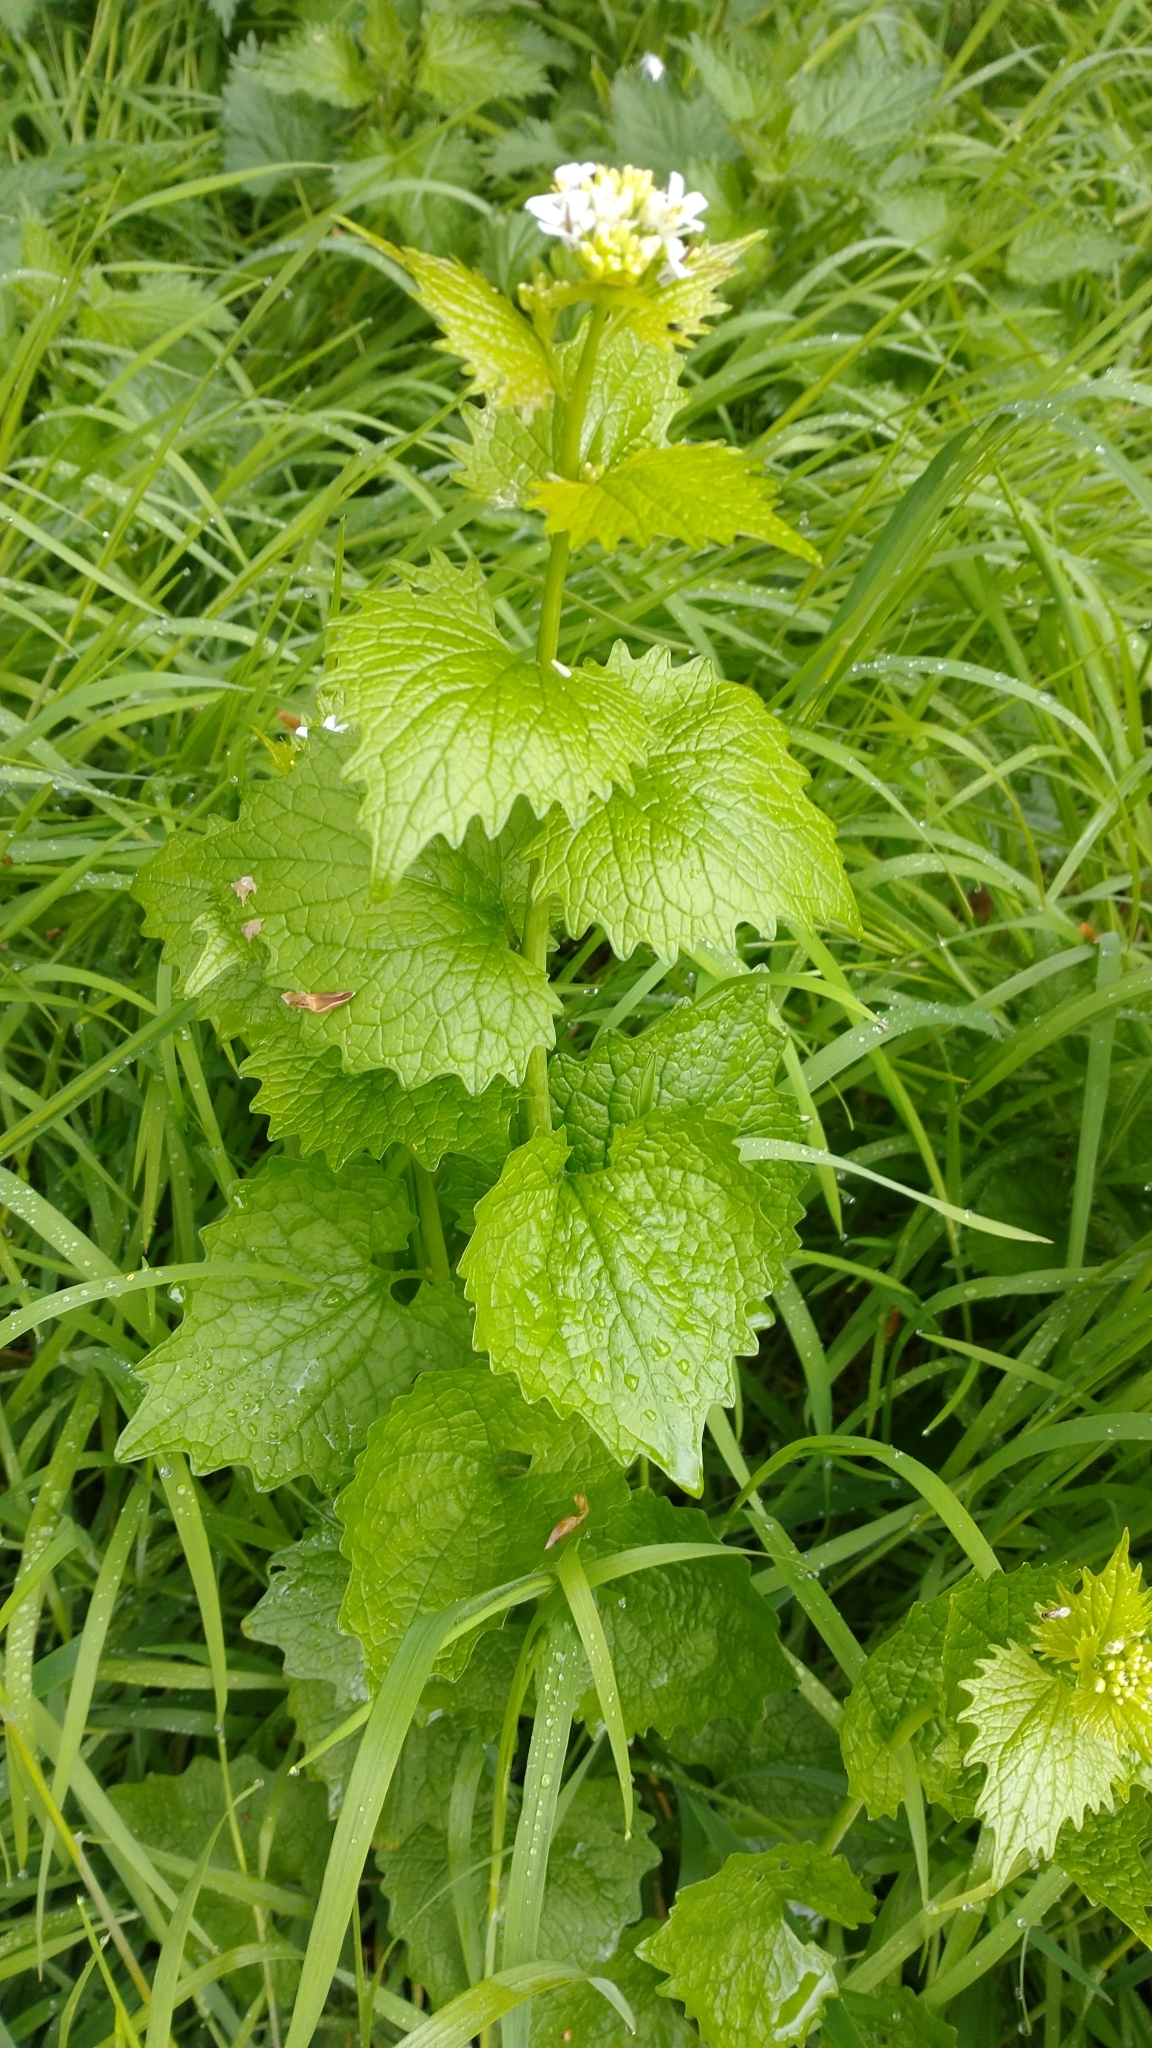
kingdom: Plantae
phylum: Tracheophyta
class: Magnoliopsida
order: Brassicales
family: Brassicaceae
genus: Alliaria
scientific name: Alliaria petiolata
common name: Garlic mustard
